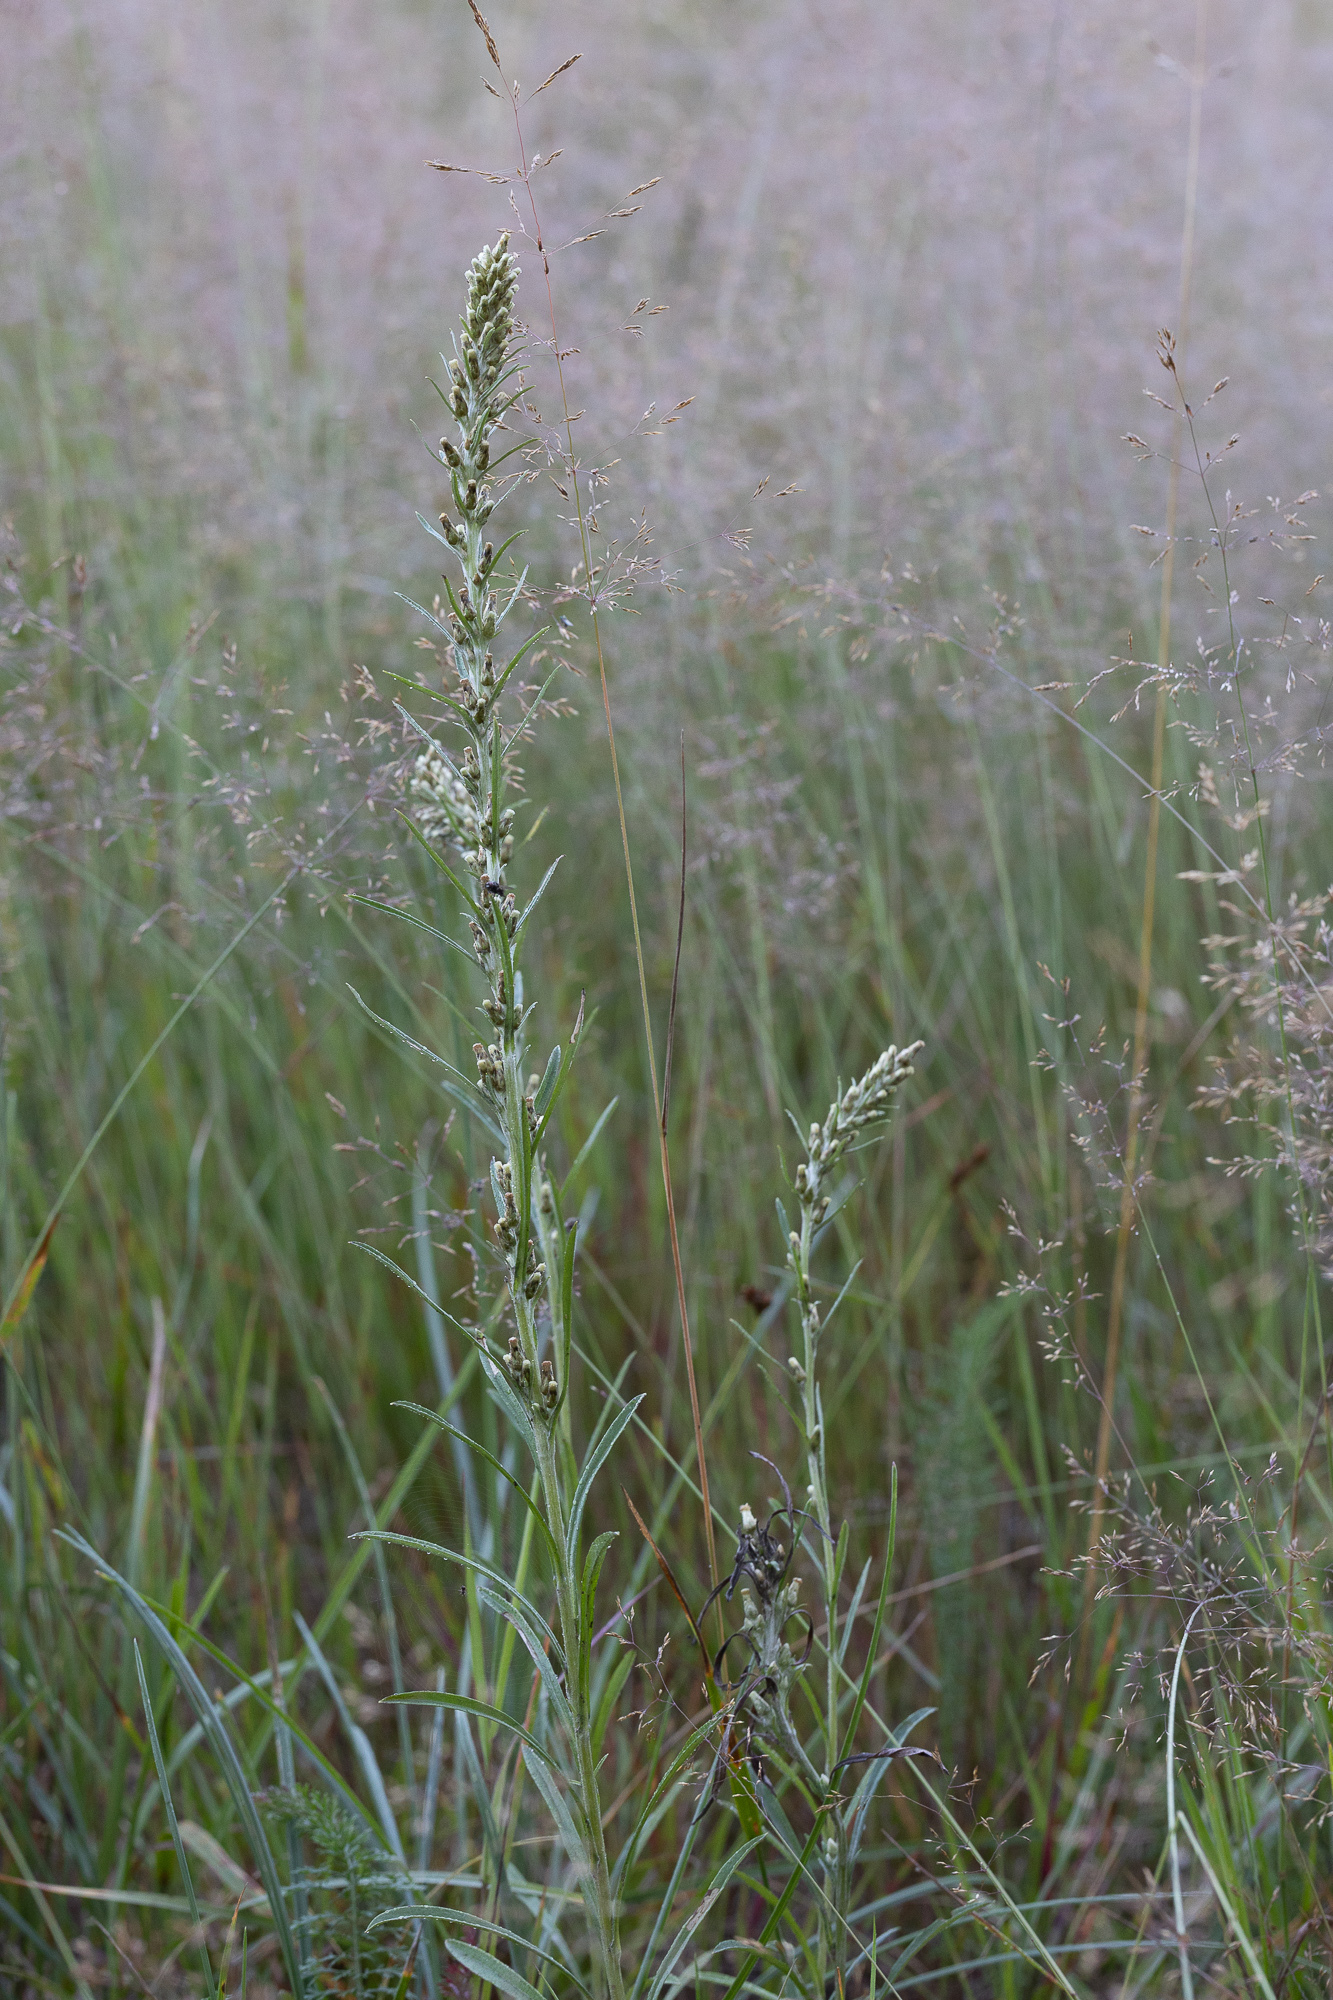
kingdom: Plantae
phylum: Tracheophyta
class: Magnoliopsida
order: Asterales
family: Asteraceae
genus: Omalotheca
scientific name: Omalotheca sylvatica
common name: Heath cudweed
